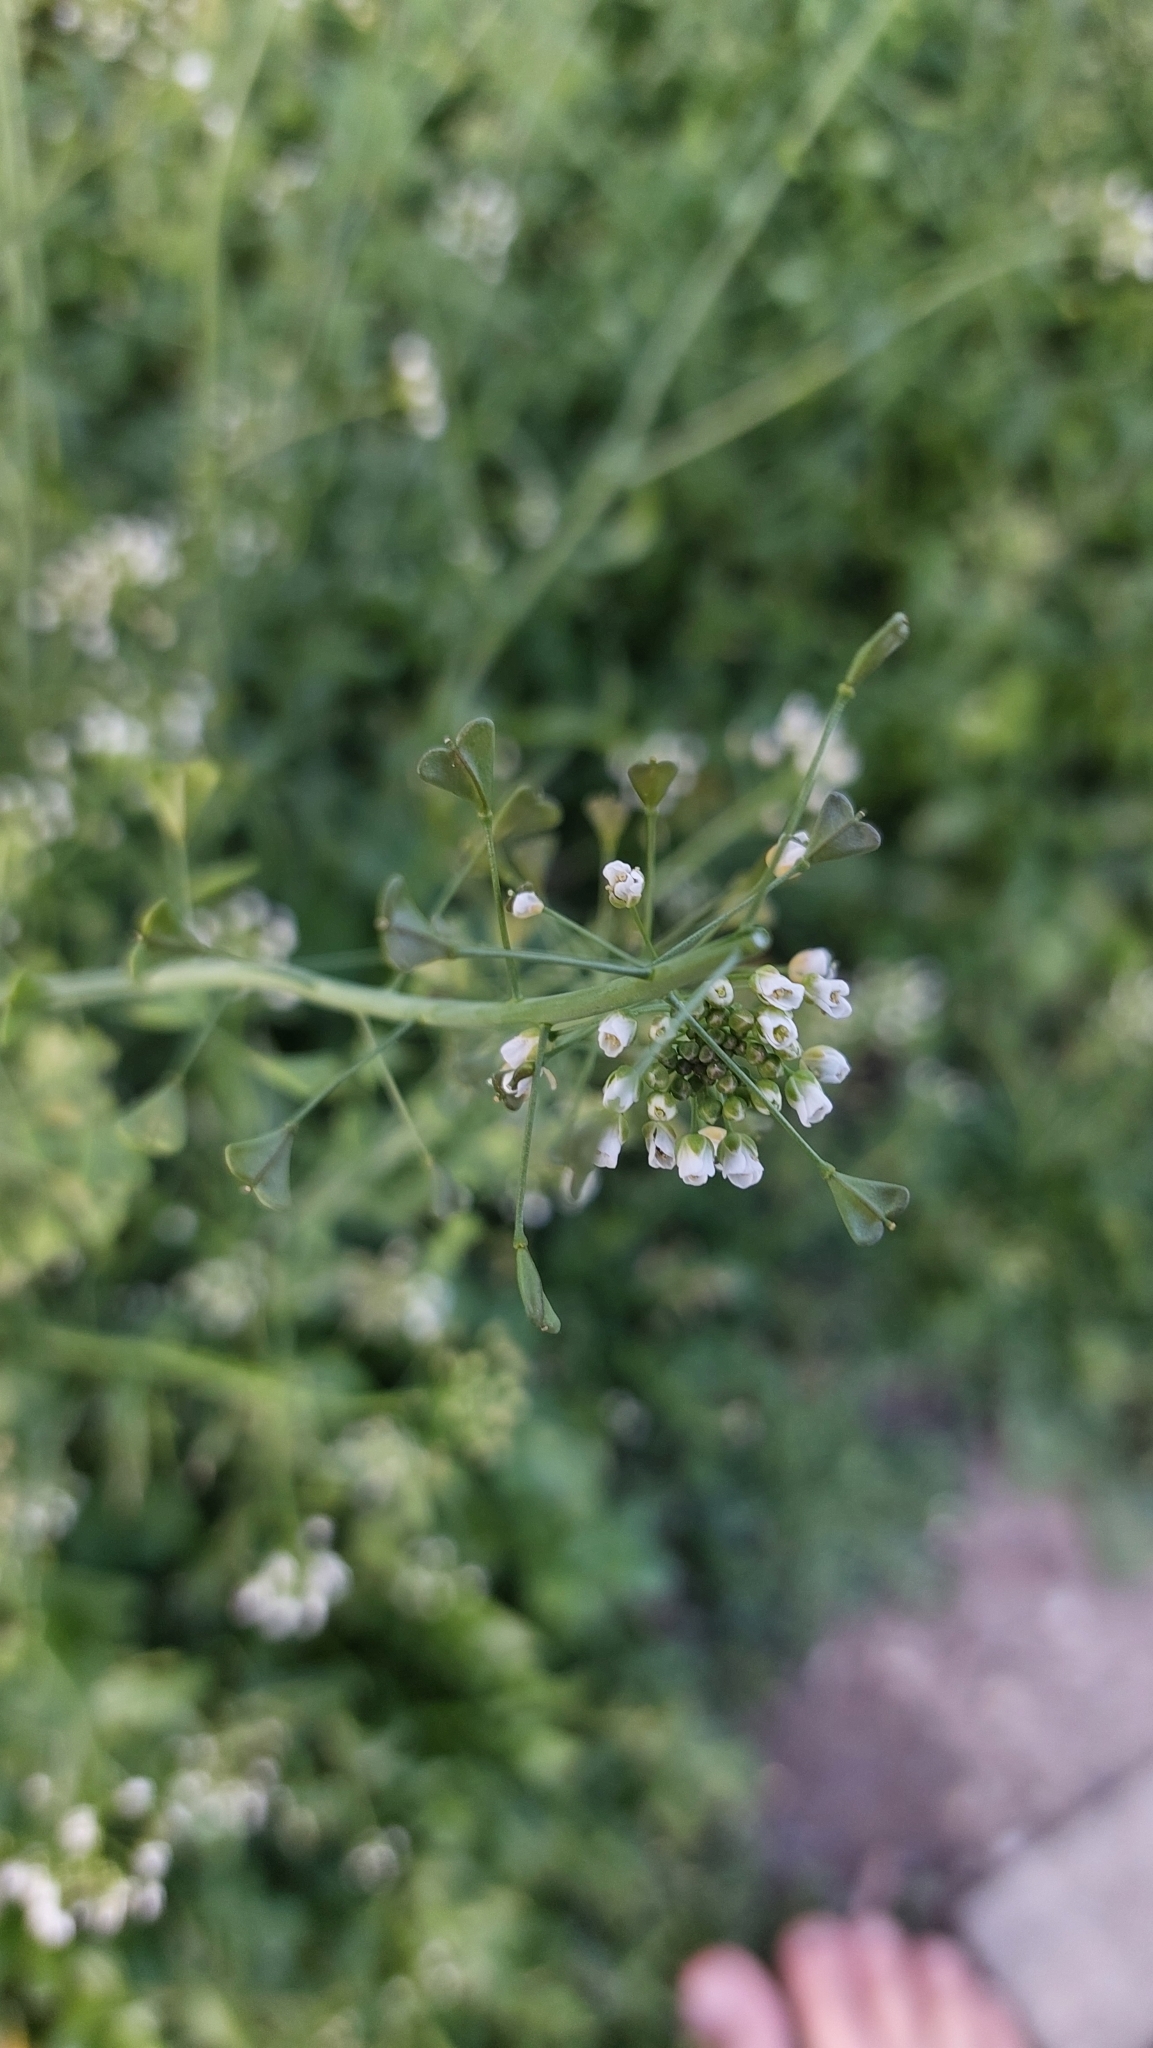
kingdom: Plantae
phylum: Tracheophyta
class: Magnoliopsida
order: Brassicales
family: Brassicaceae
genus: Capsella
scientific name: Capsella bursa-pastoris
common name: Shepherd's purse
